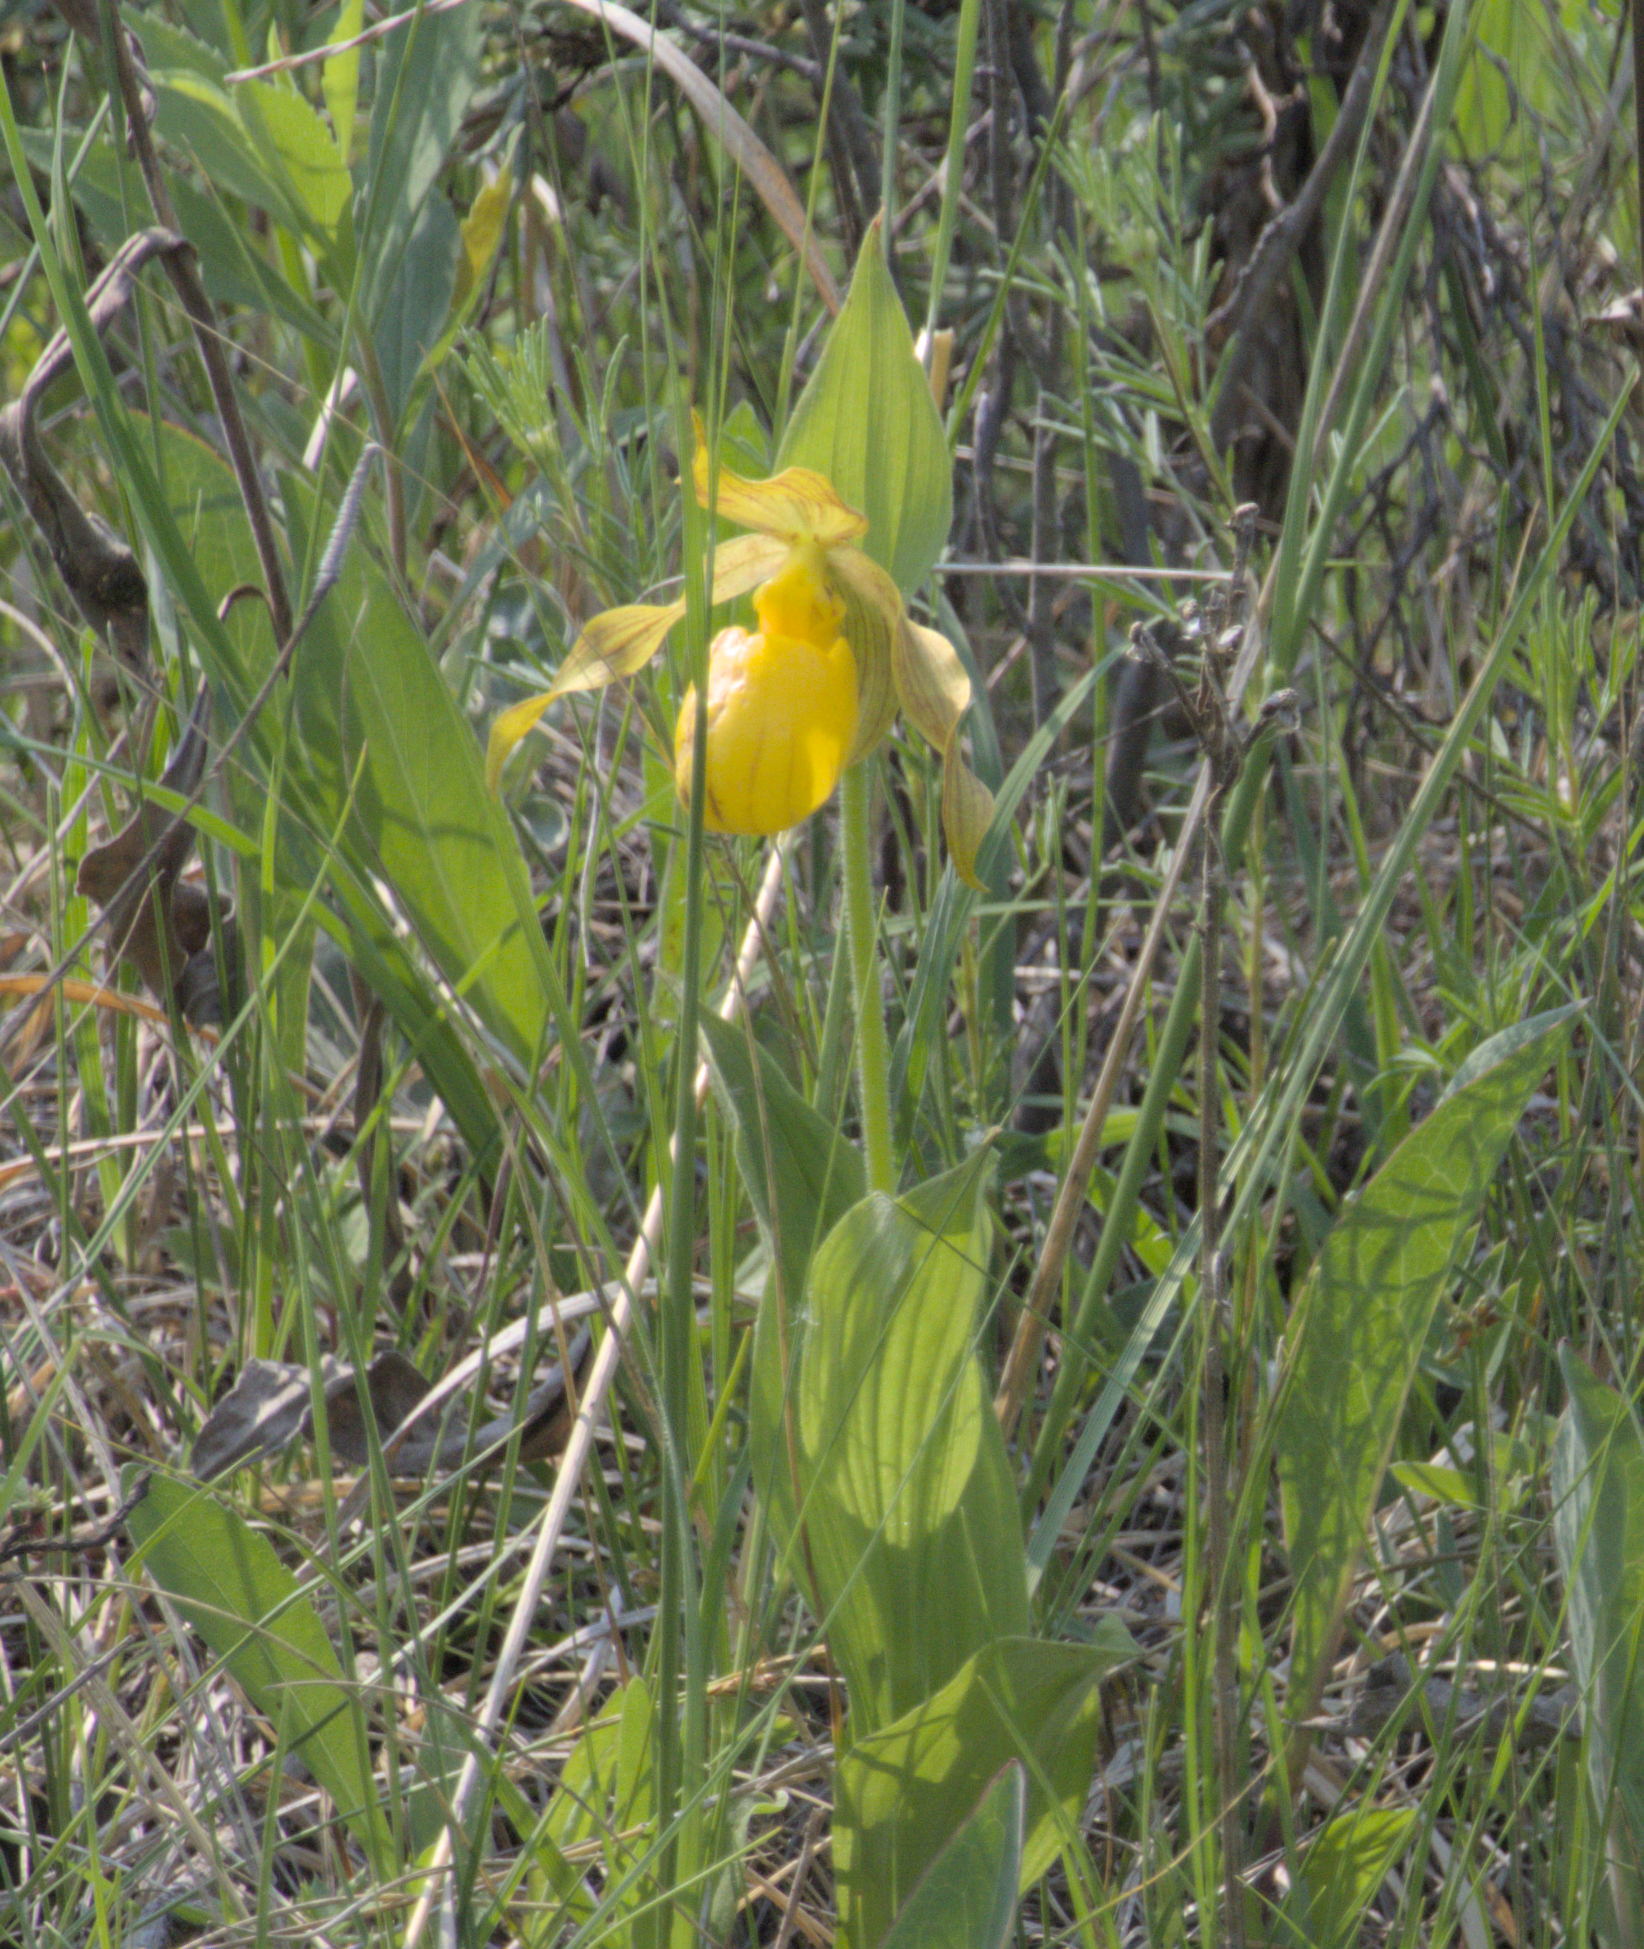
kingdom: Plantae
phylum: Tracheophyta
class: Liliopsida
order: Asparagales
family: Orchidaceae
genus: Cypripedium
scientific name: Cypripedium parviflorum
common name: American yellow lady's-slipper
